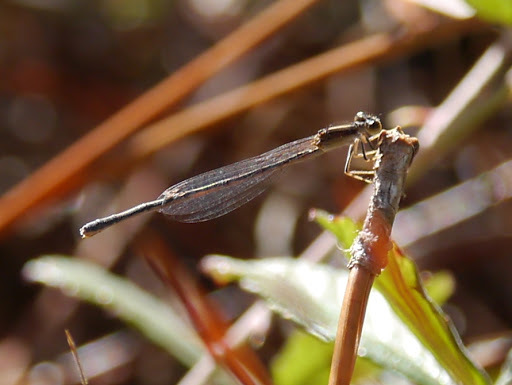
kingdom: Animalia
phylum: Arthropoda
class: Insecta
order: Odonata
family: Coenagrionidae
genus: Ischnura
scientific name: Ischnura hastata
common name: Citrine forktail
